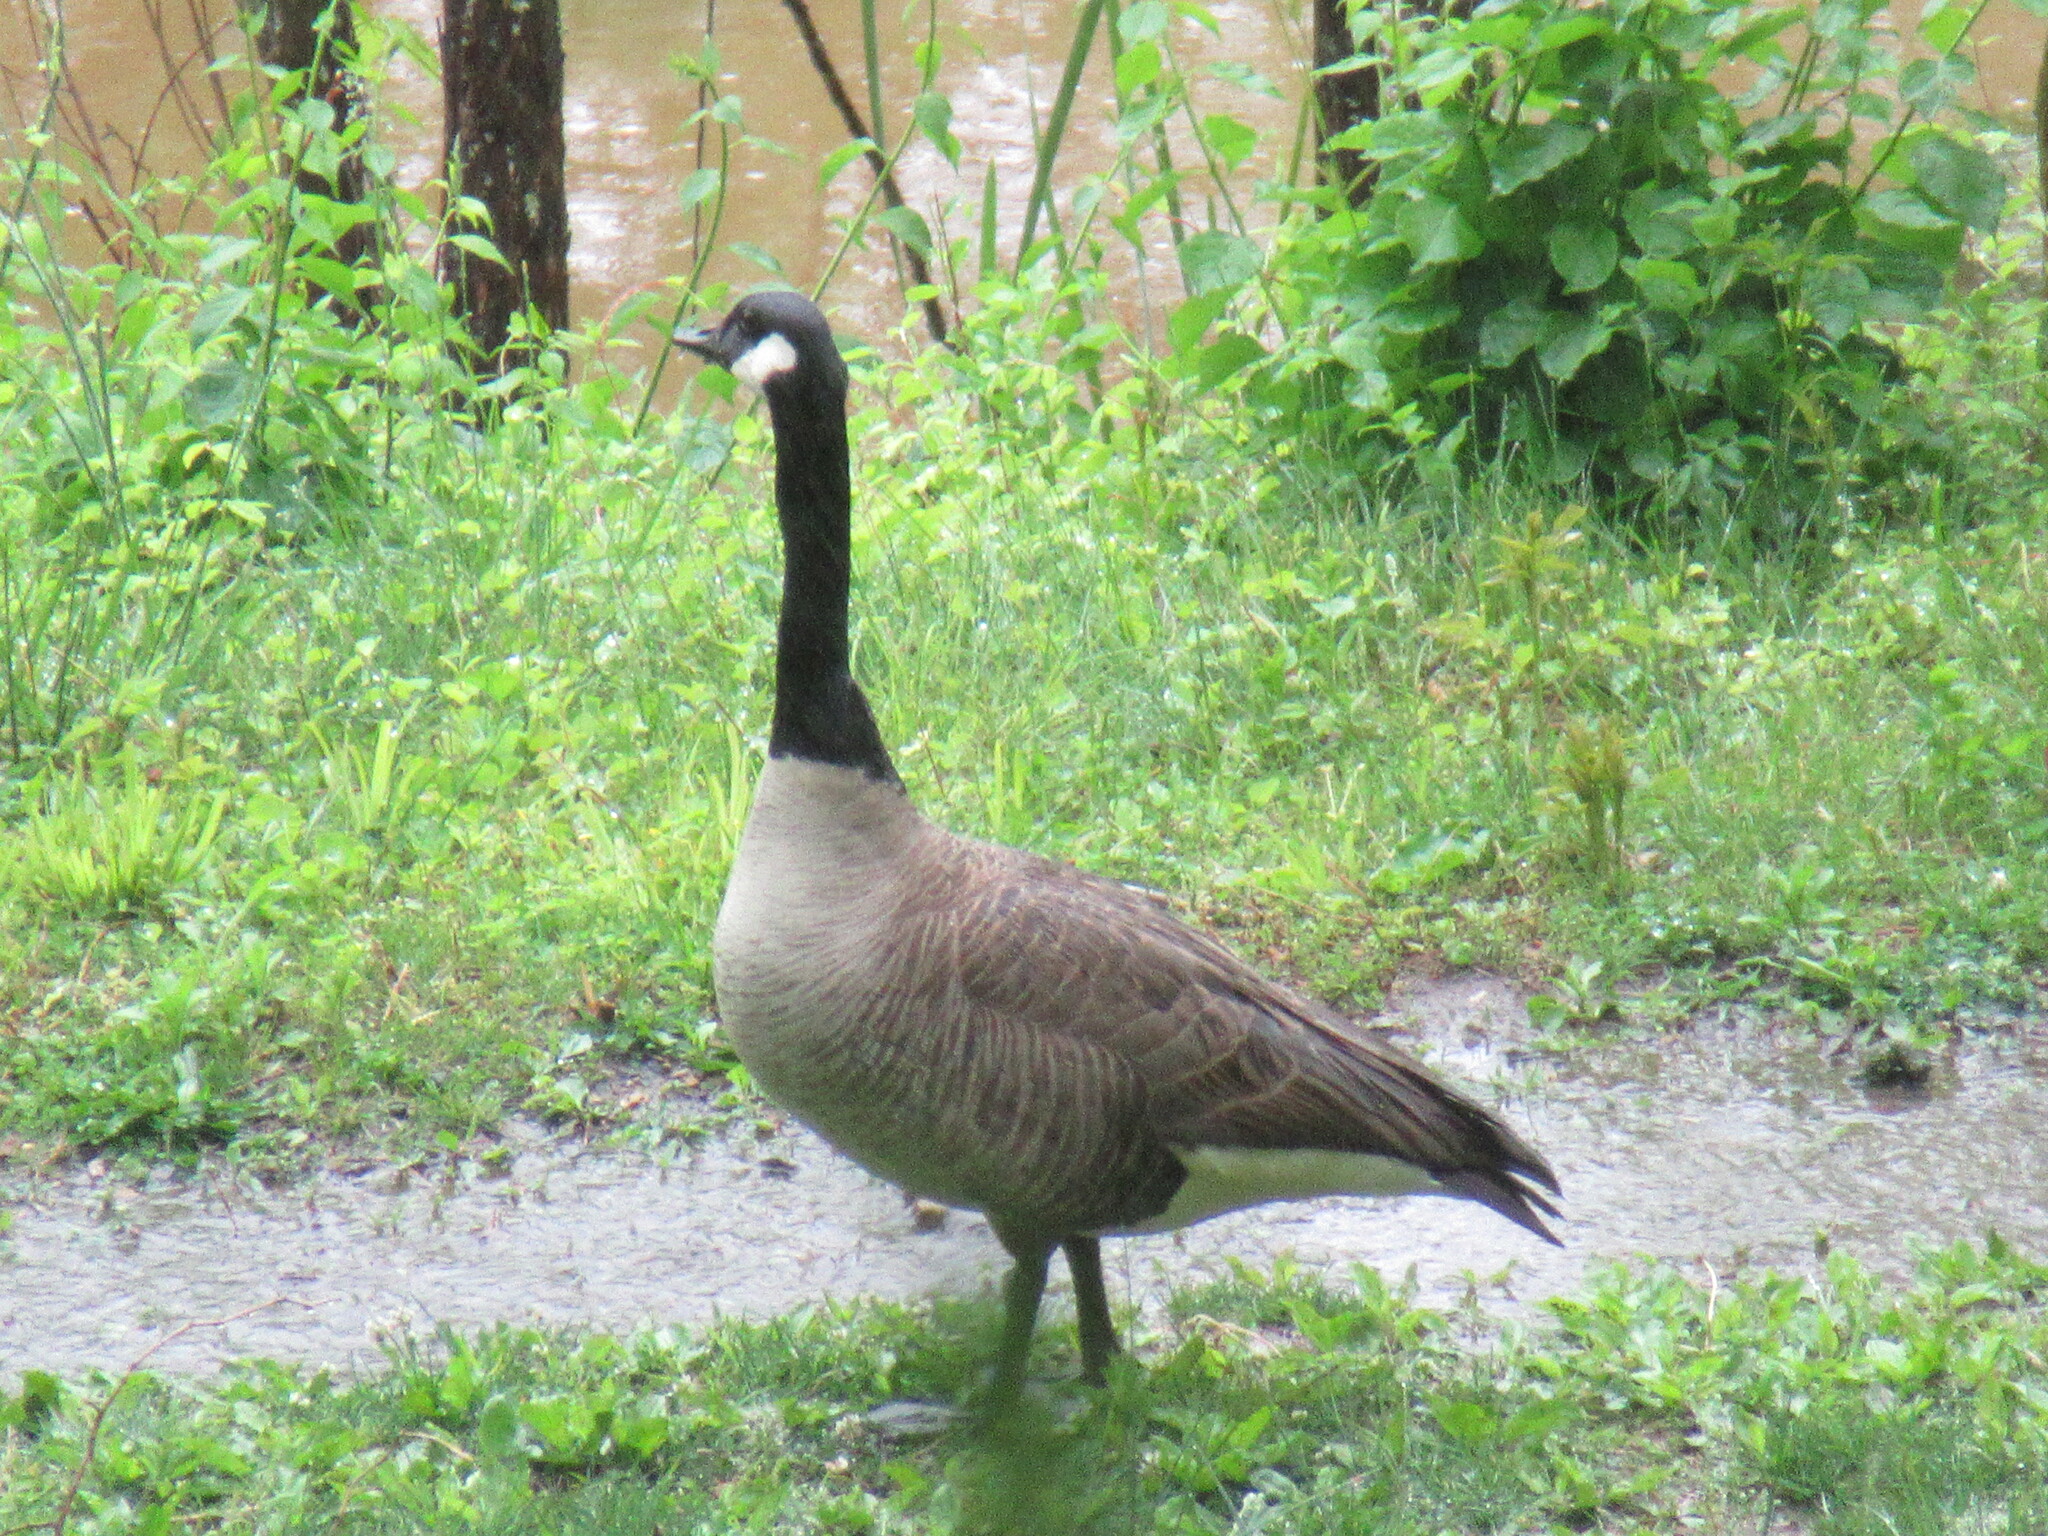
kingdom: Animalia
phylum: Chordata
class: Aves
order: Anseriformes
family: Anatidae
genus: Branta
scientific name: Branta canadensis
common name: Canada goose
